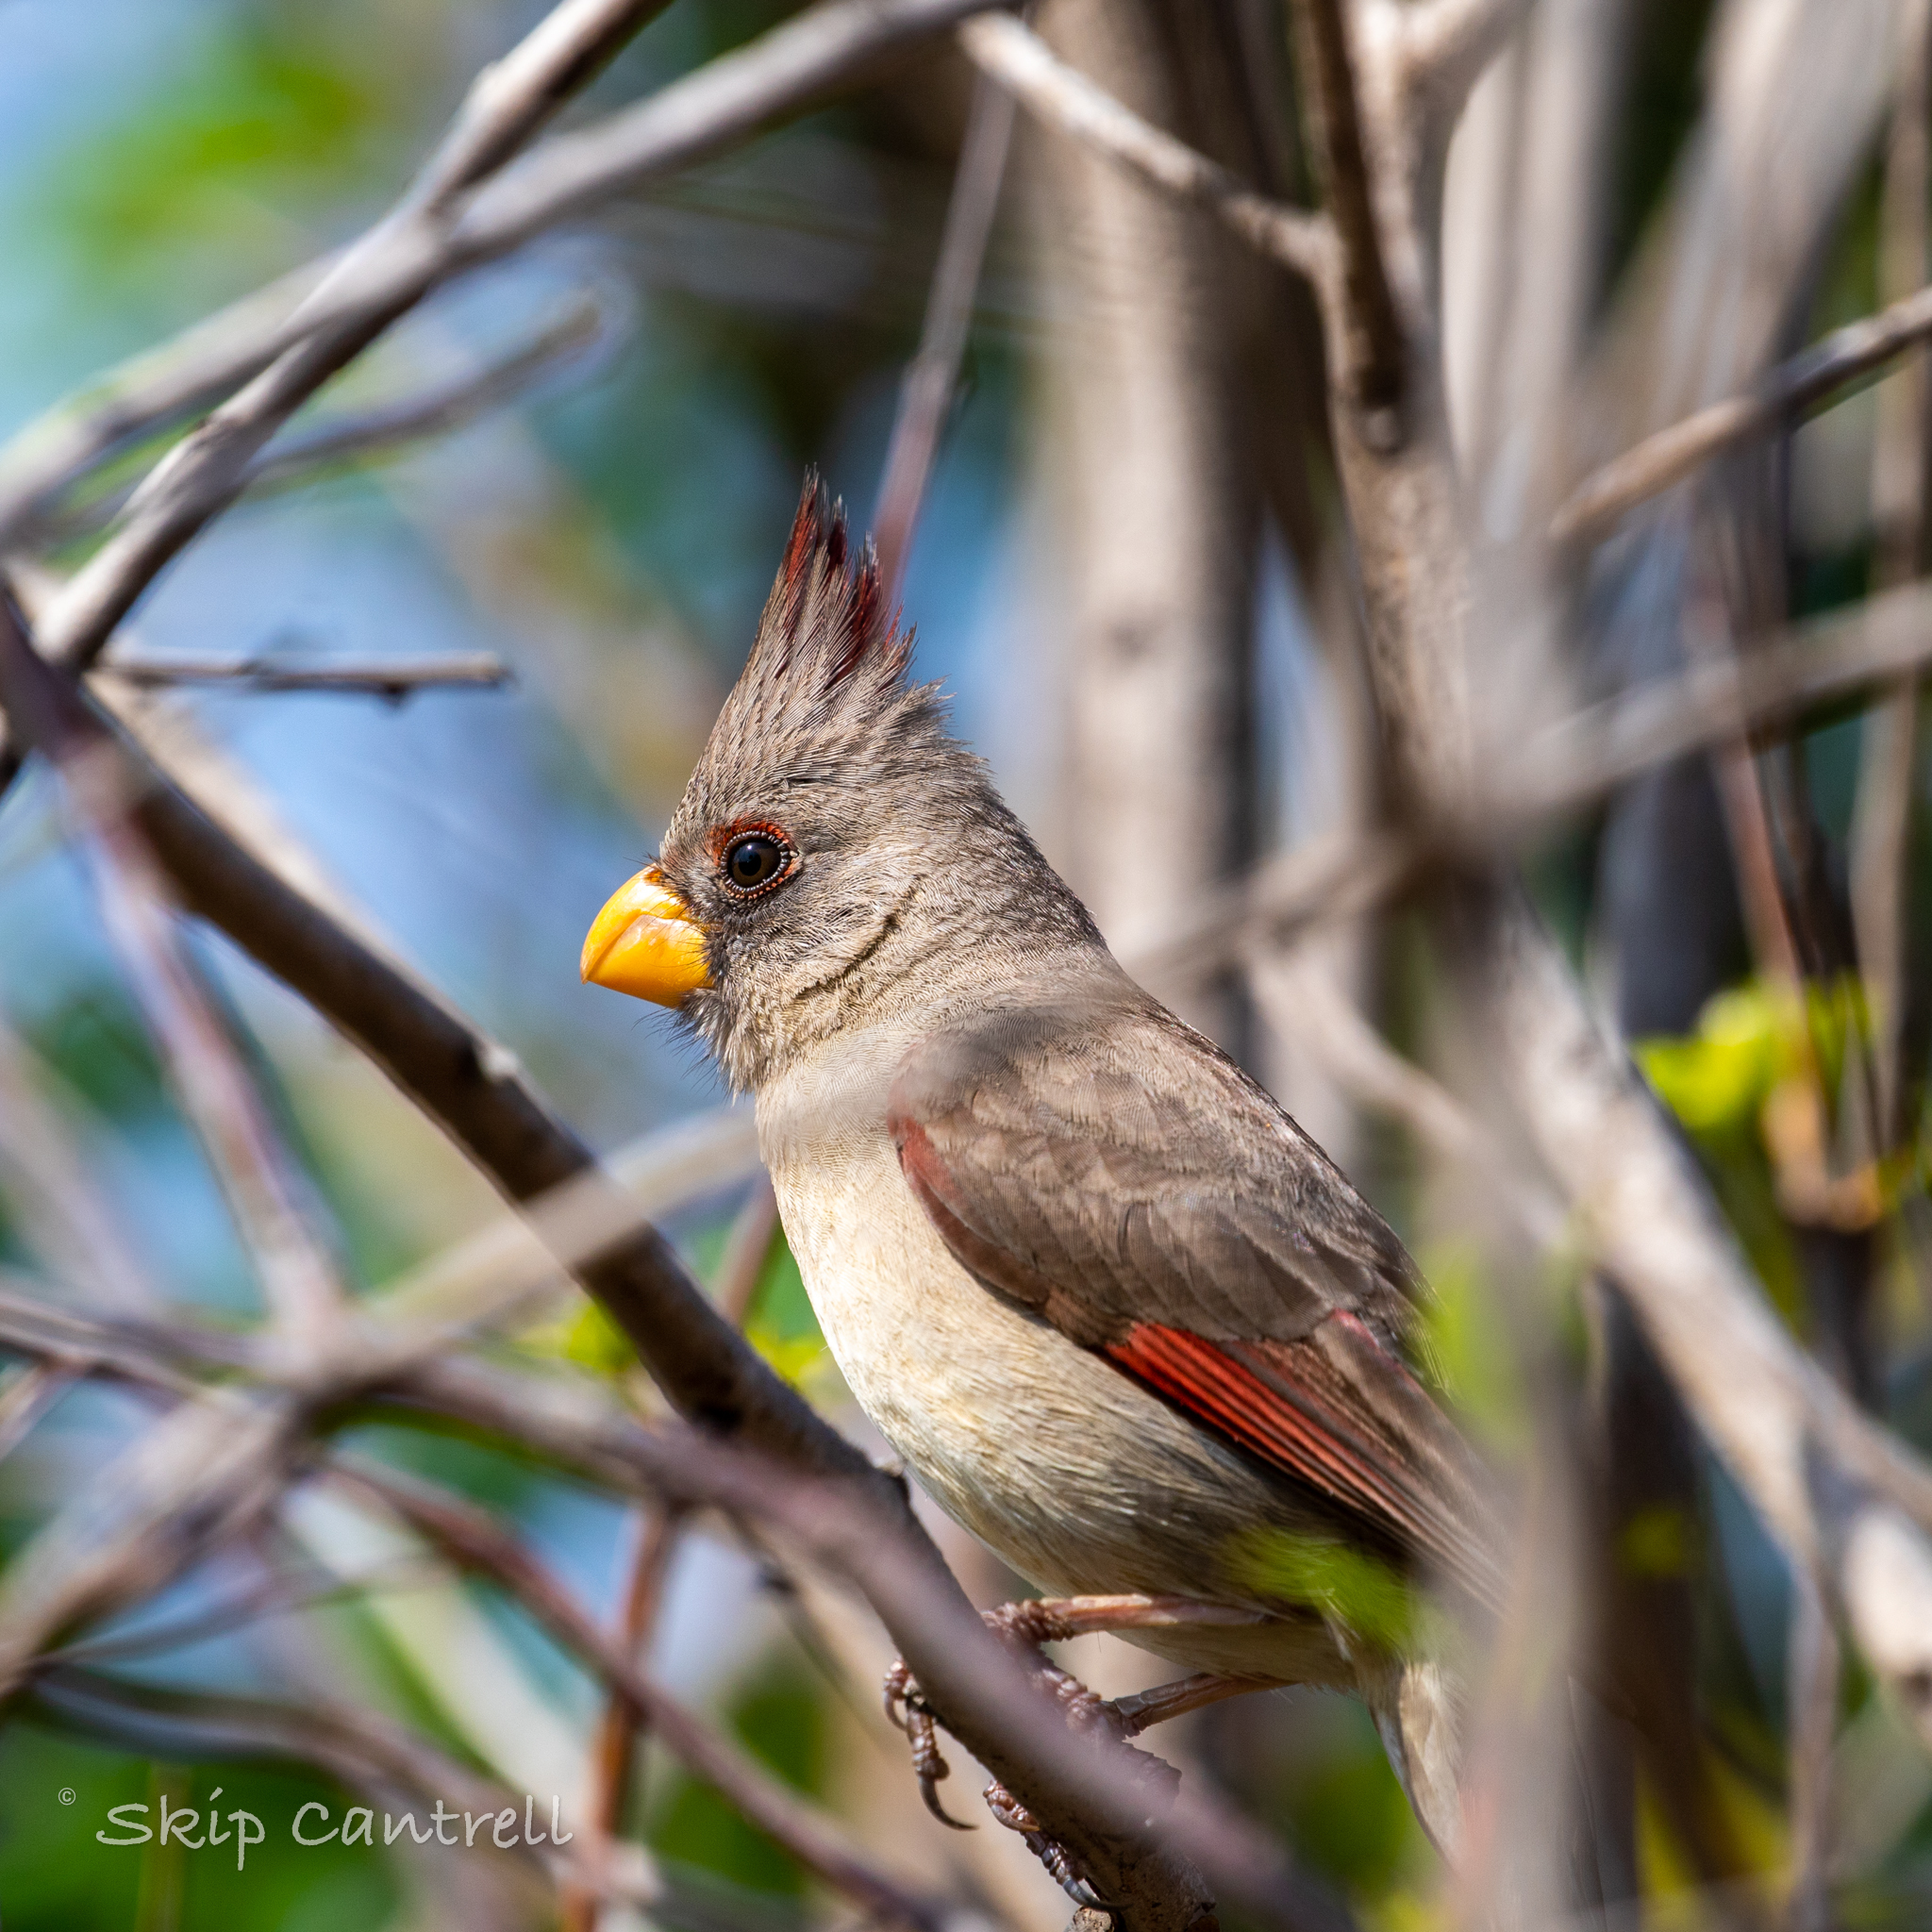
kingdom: Animalia
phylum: Chordata
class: Aves
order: Passeriformes
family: Cardinalidae
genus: Cardinalis
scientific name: Cardinalis sinuatus
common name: Pyrrhuloxia
